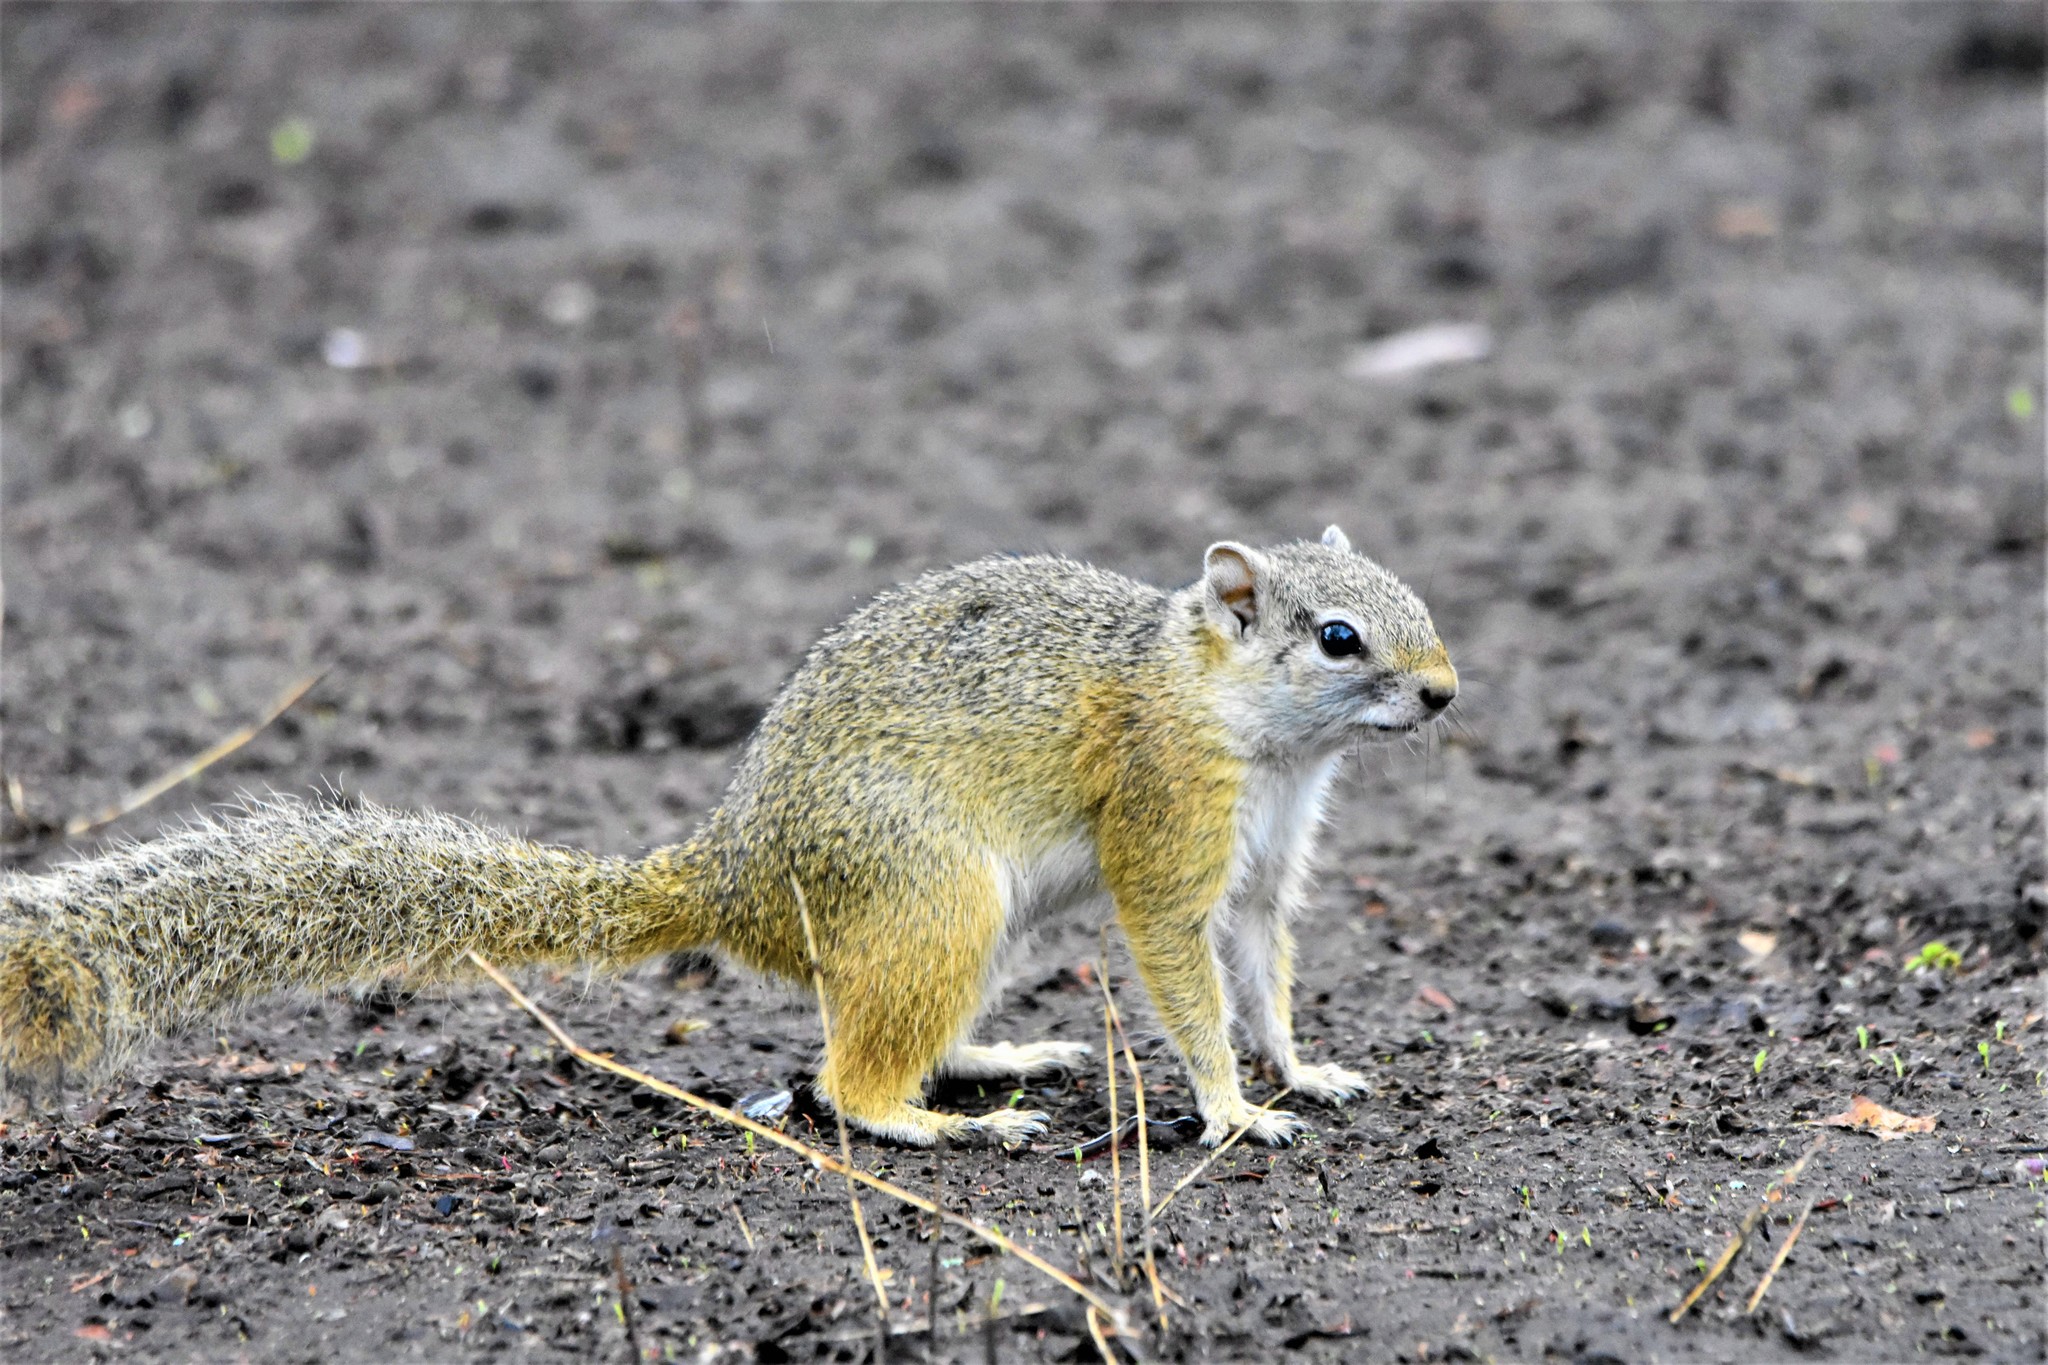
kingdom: Animalia
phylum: Chordata
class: Mammalia
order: Rodentia
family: Sciuridae
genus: Paraxerus
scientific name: Paraxerus cepapi
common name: Smith's bush squirrel
